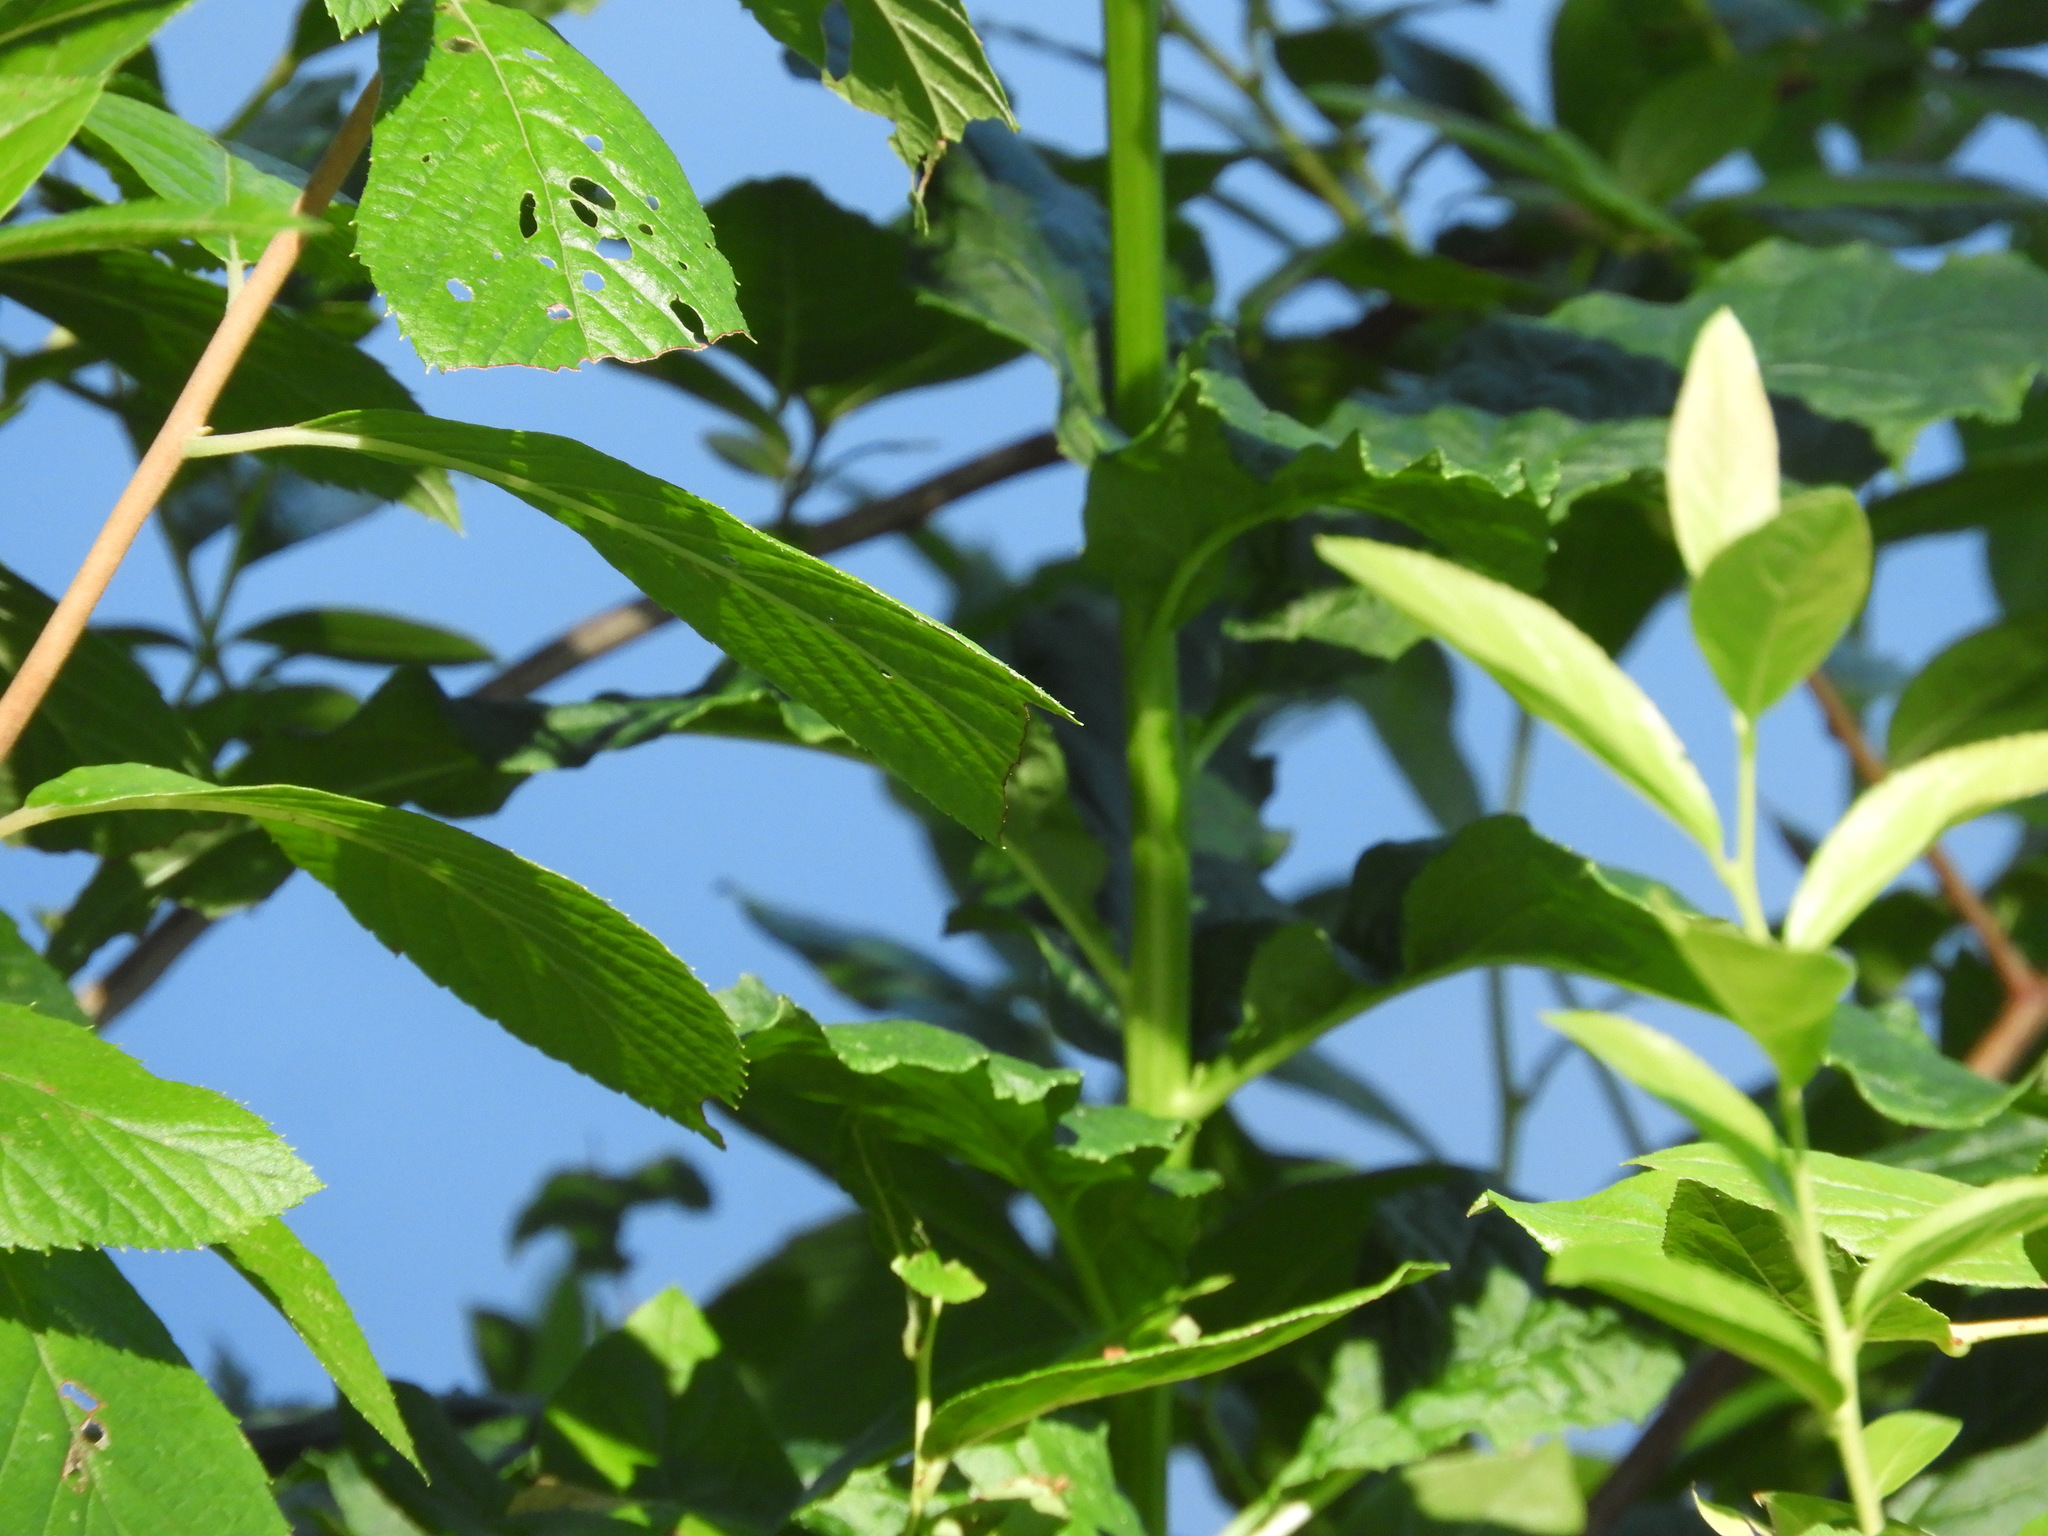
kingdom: Plantae
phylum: Tracheophyta
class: Magnoliopsida
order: Asterales
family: Campanulaceae
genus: Lobelia
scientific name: Lobelia cardinalis
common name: Cardinal flower
